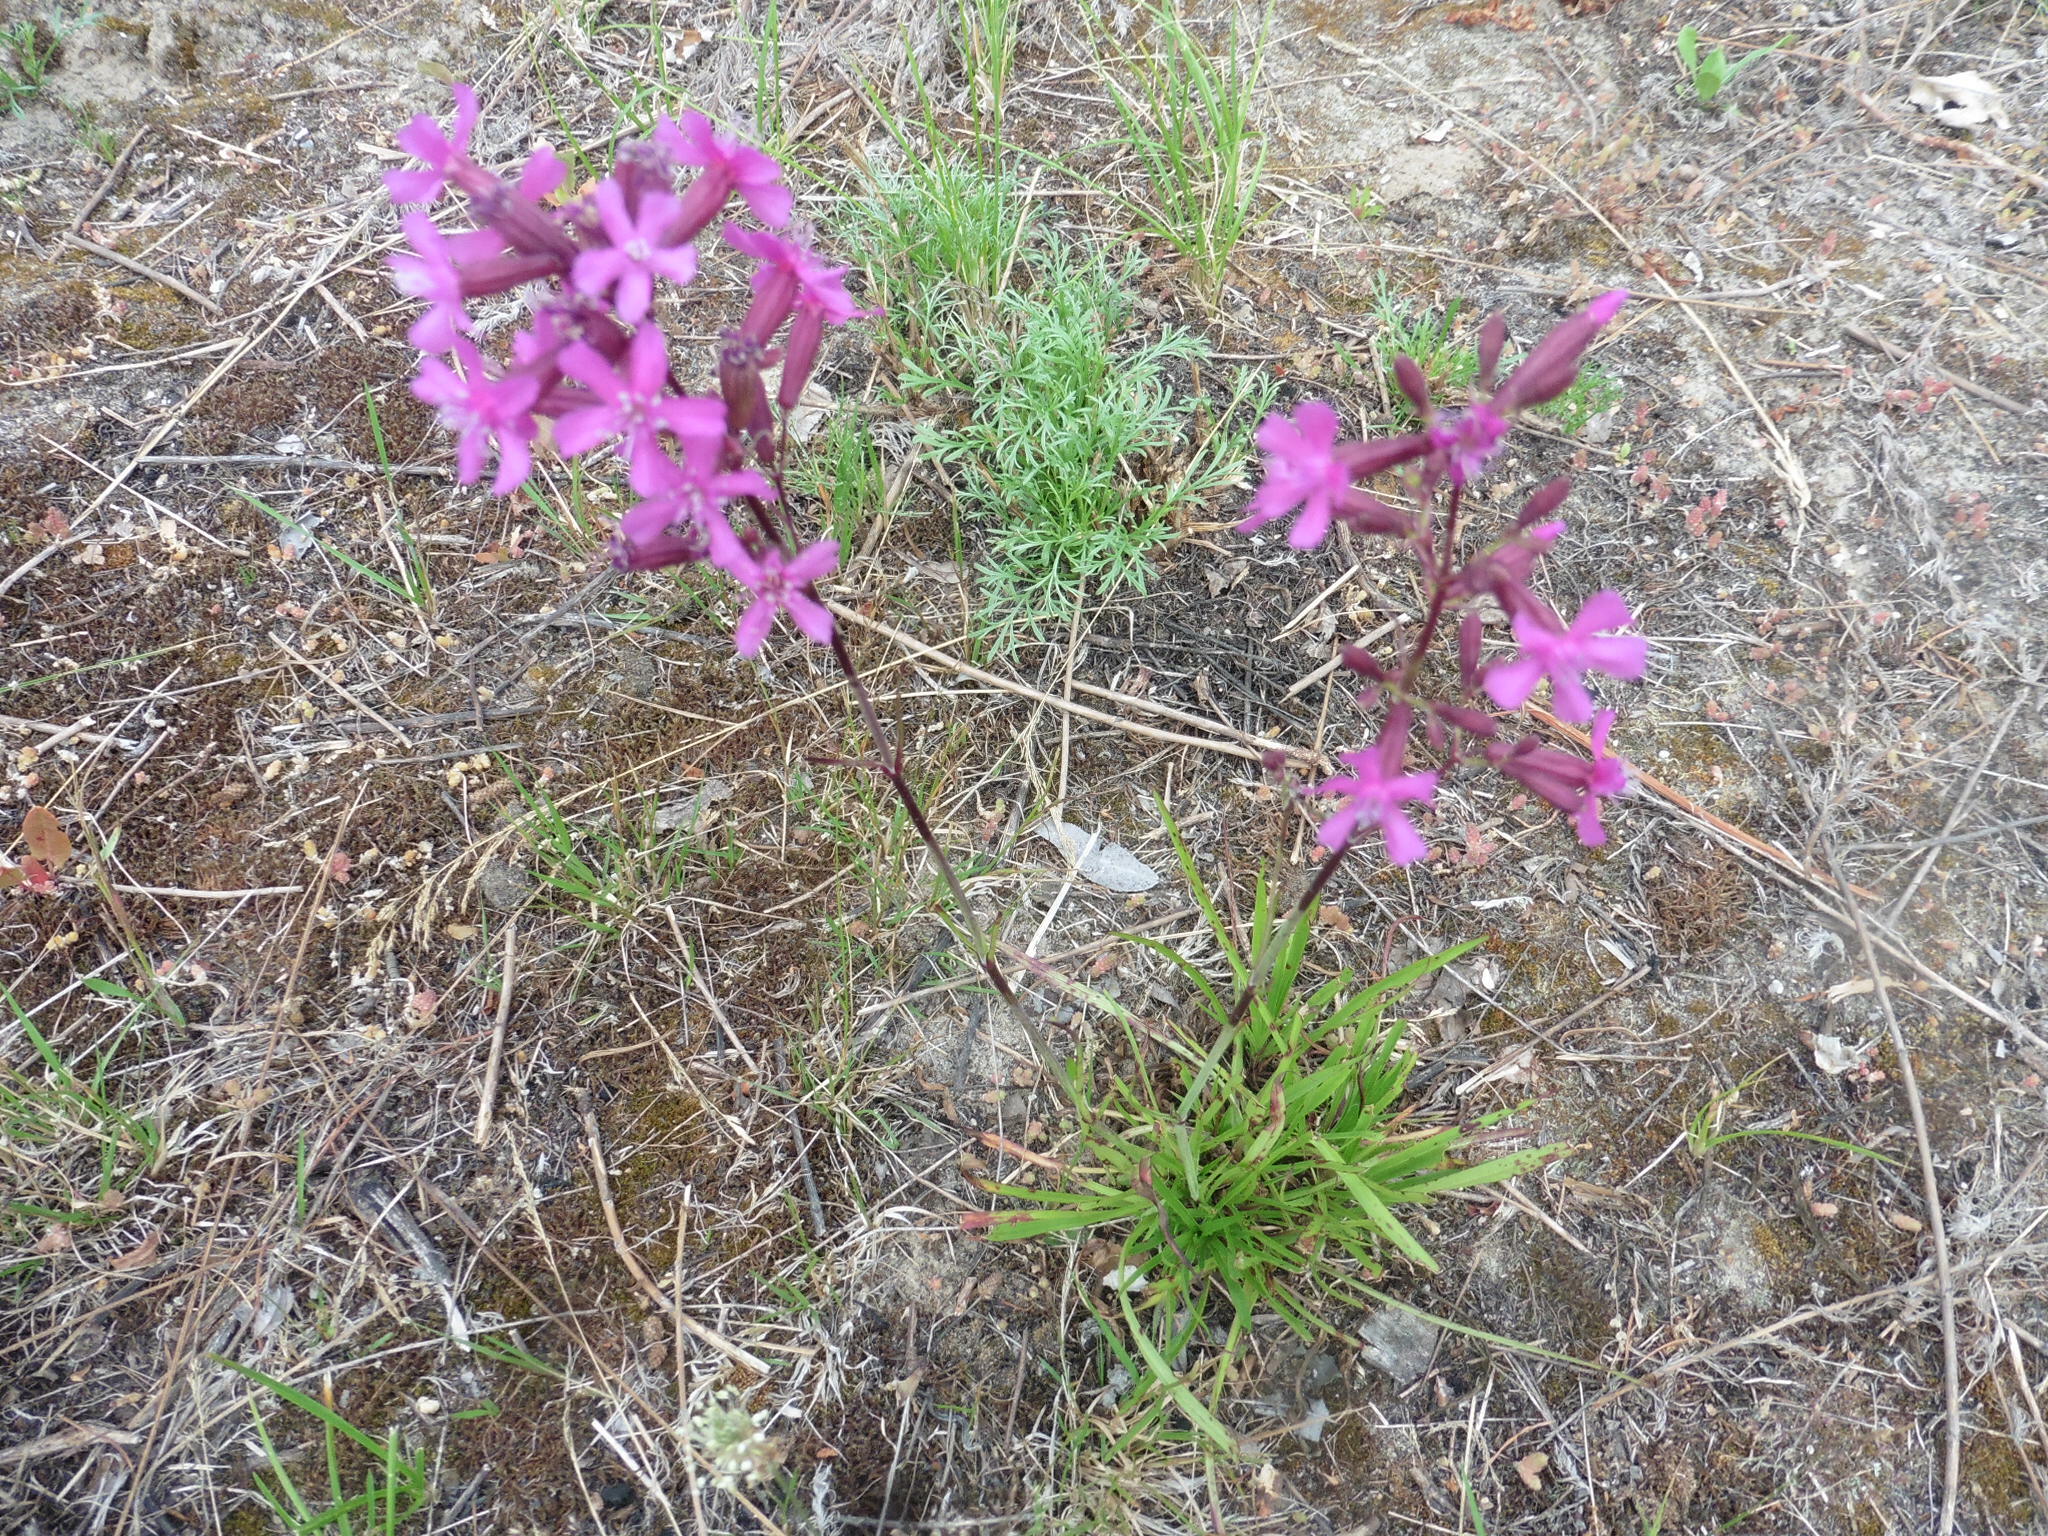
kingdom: Plantae
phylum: Tracheophyta
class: Magnoliopsida
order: Caryophyllales
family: Caryophyllaceae
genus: Viscaria
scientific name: Viscaria vulgaris
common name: Clammy campion
